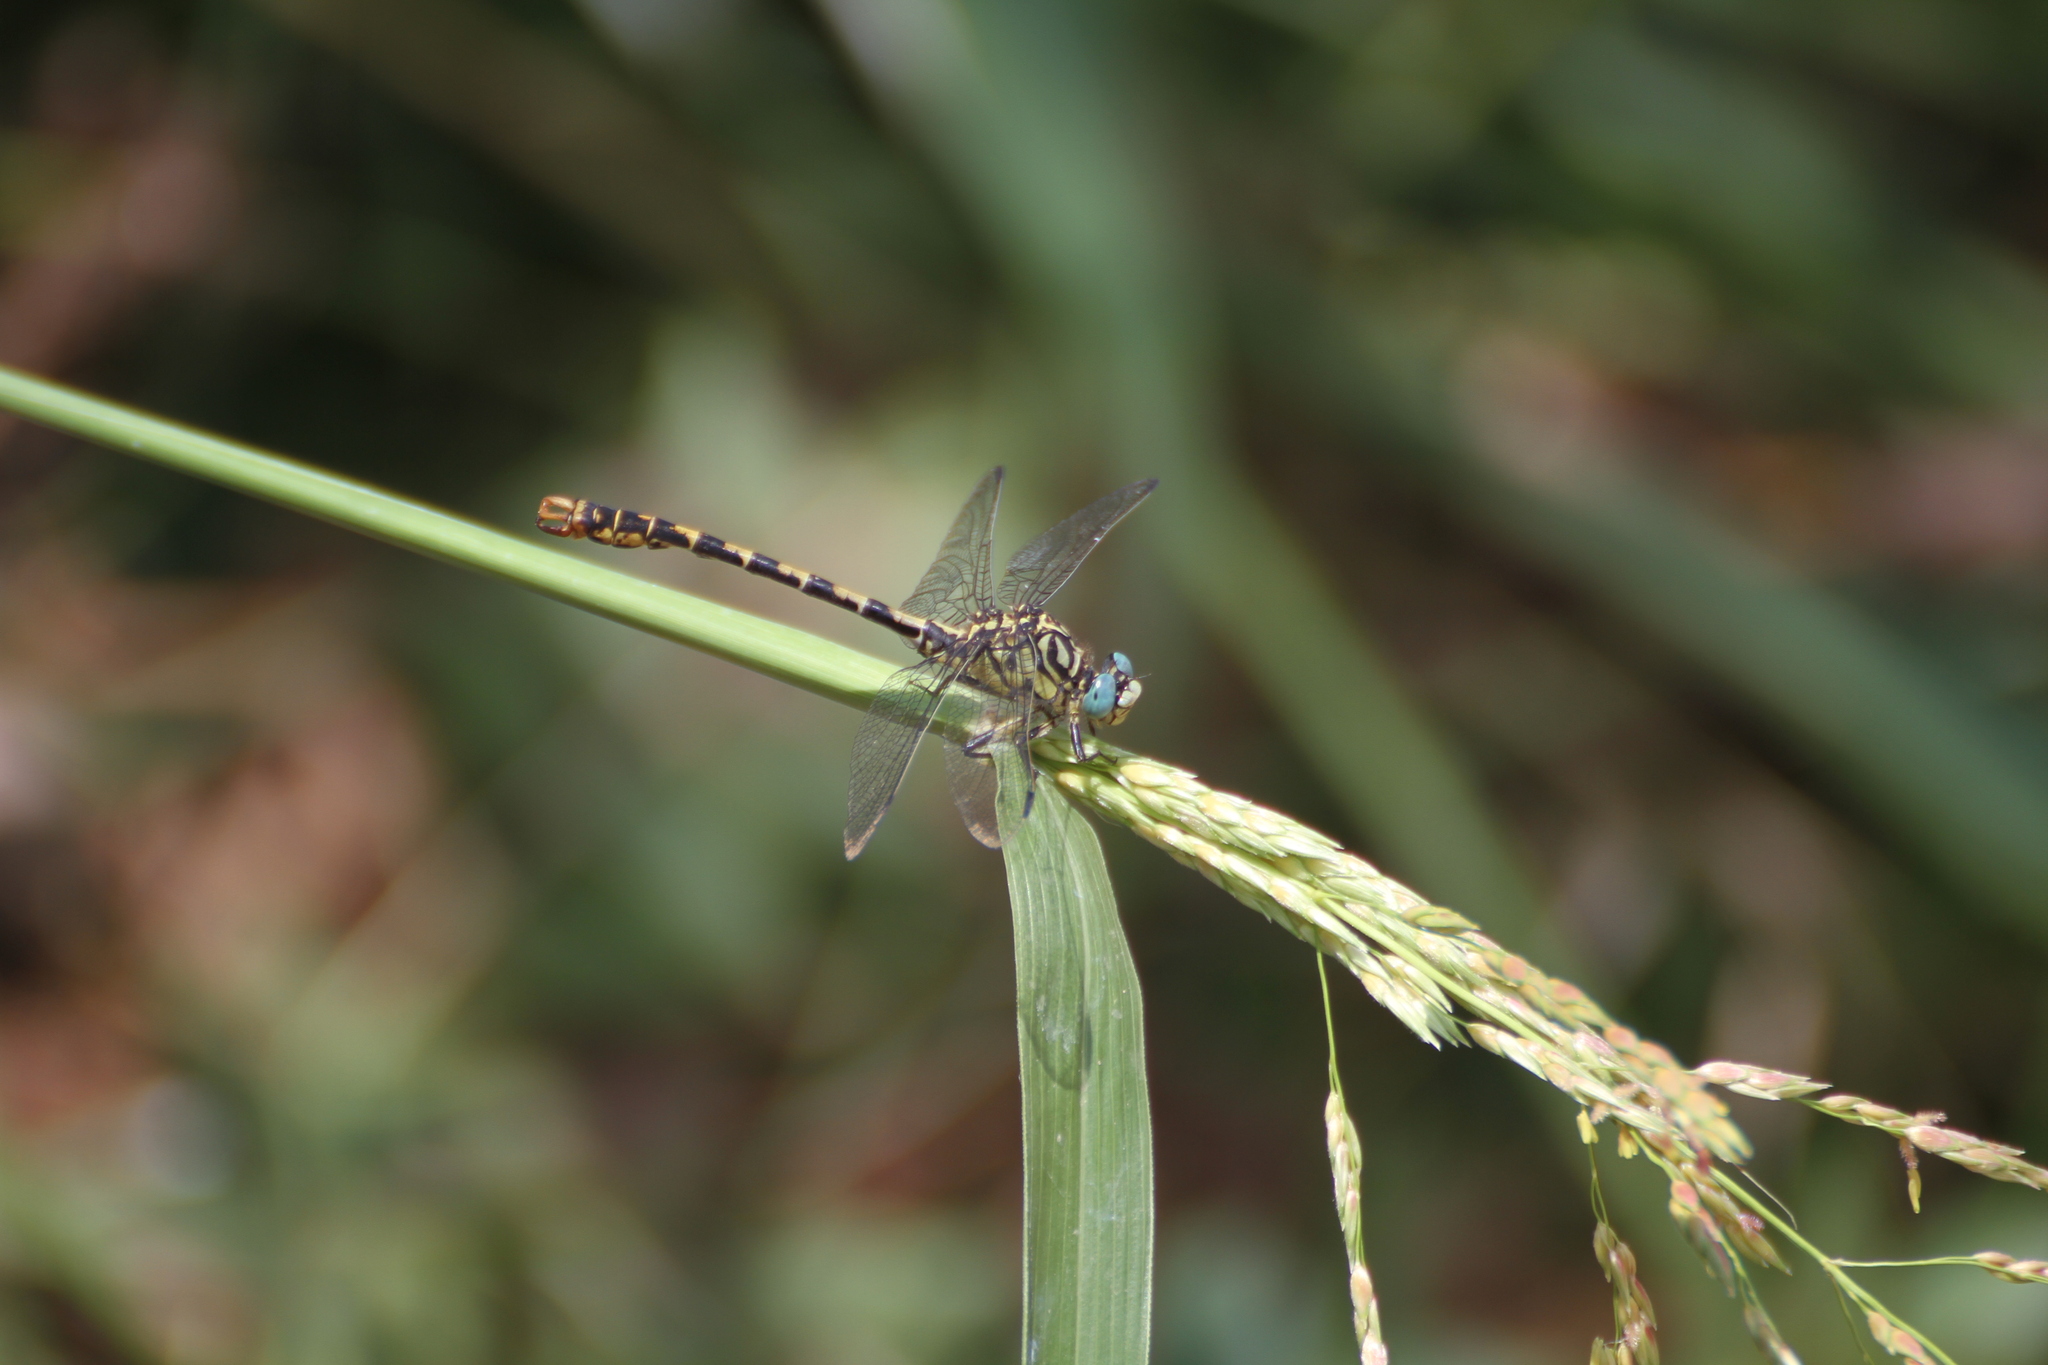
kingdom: Animalia
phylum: Arthropoda
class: Insecta
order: Odonata
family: Gomphidae
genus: Onychogomphus
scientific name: Onychogomphus forcipatus
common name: Small pincertail
